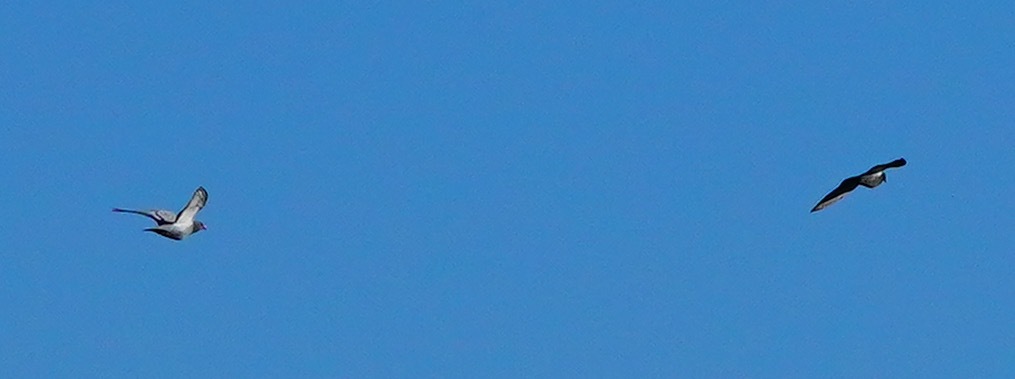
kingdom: Animalia
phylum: Chordata
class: Aves
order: Columbiformes
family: Columbidae
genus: Columba
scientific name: Columba livia
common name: Rock pigeon
